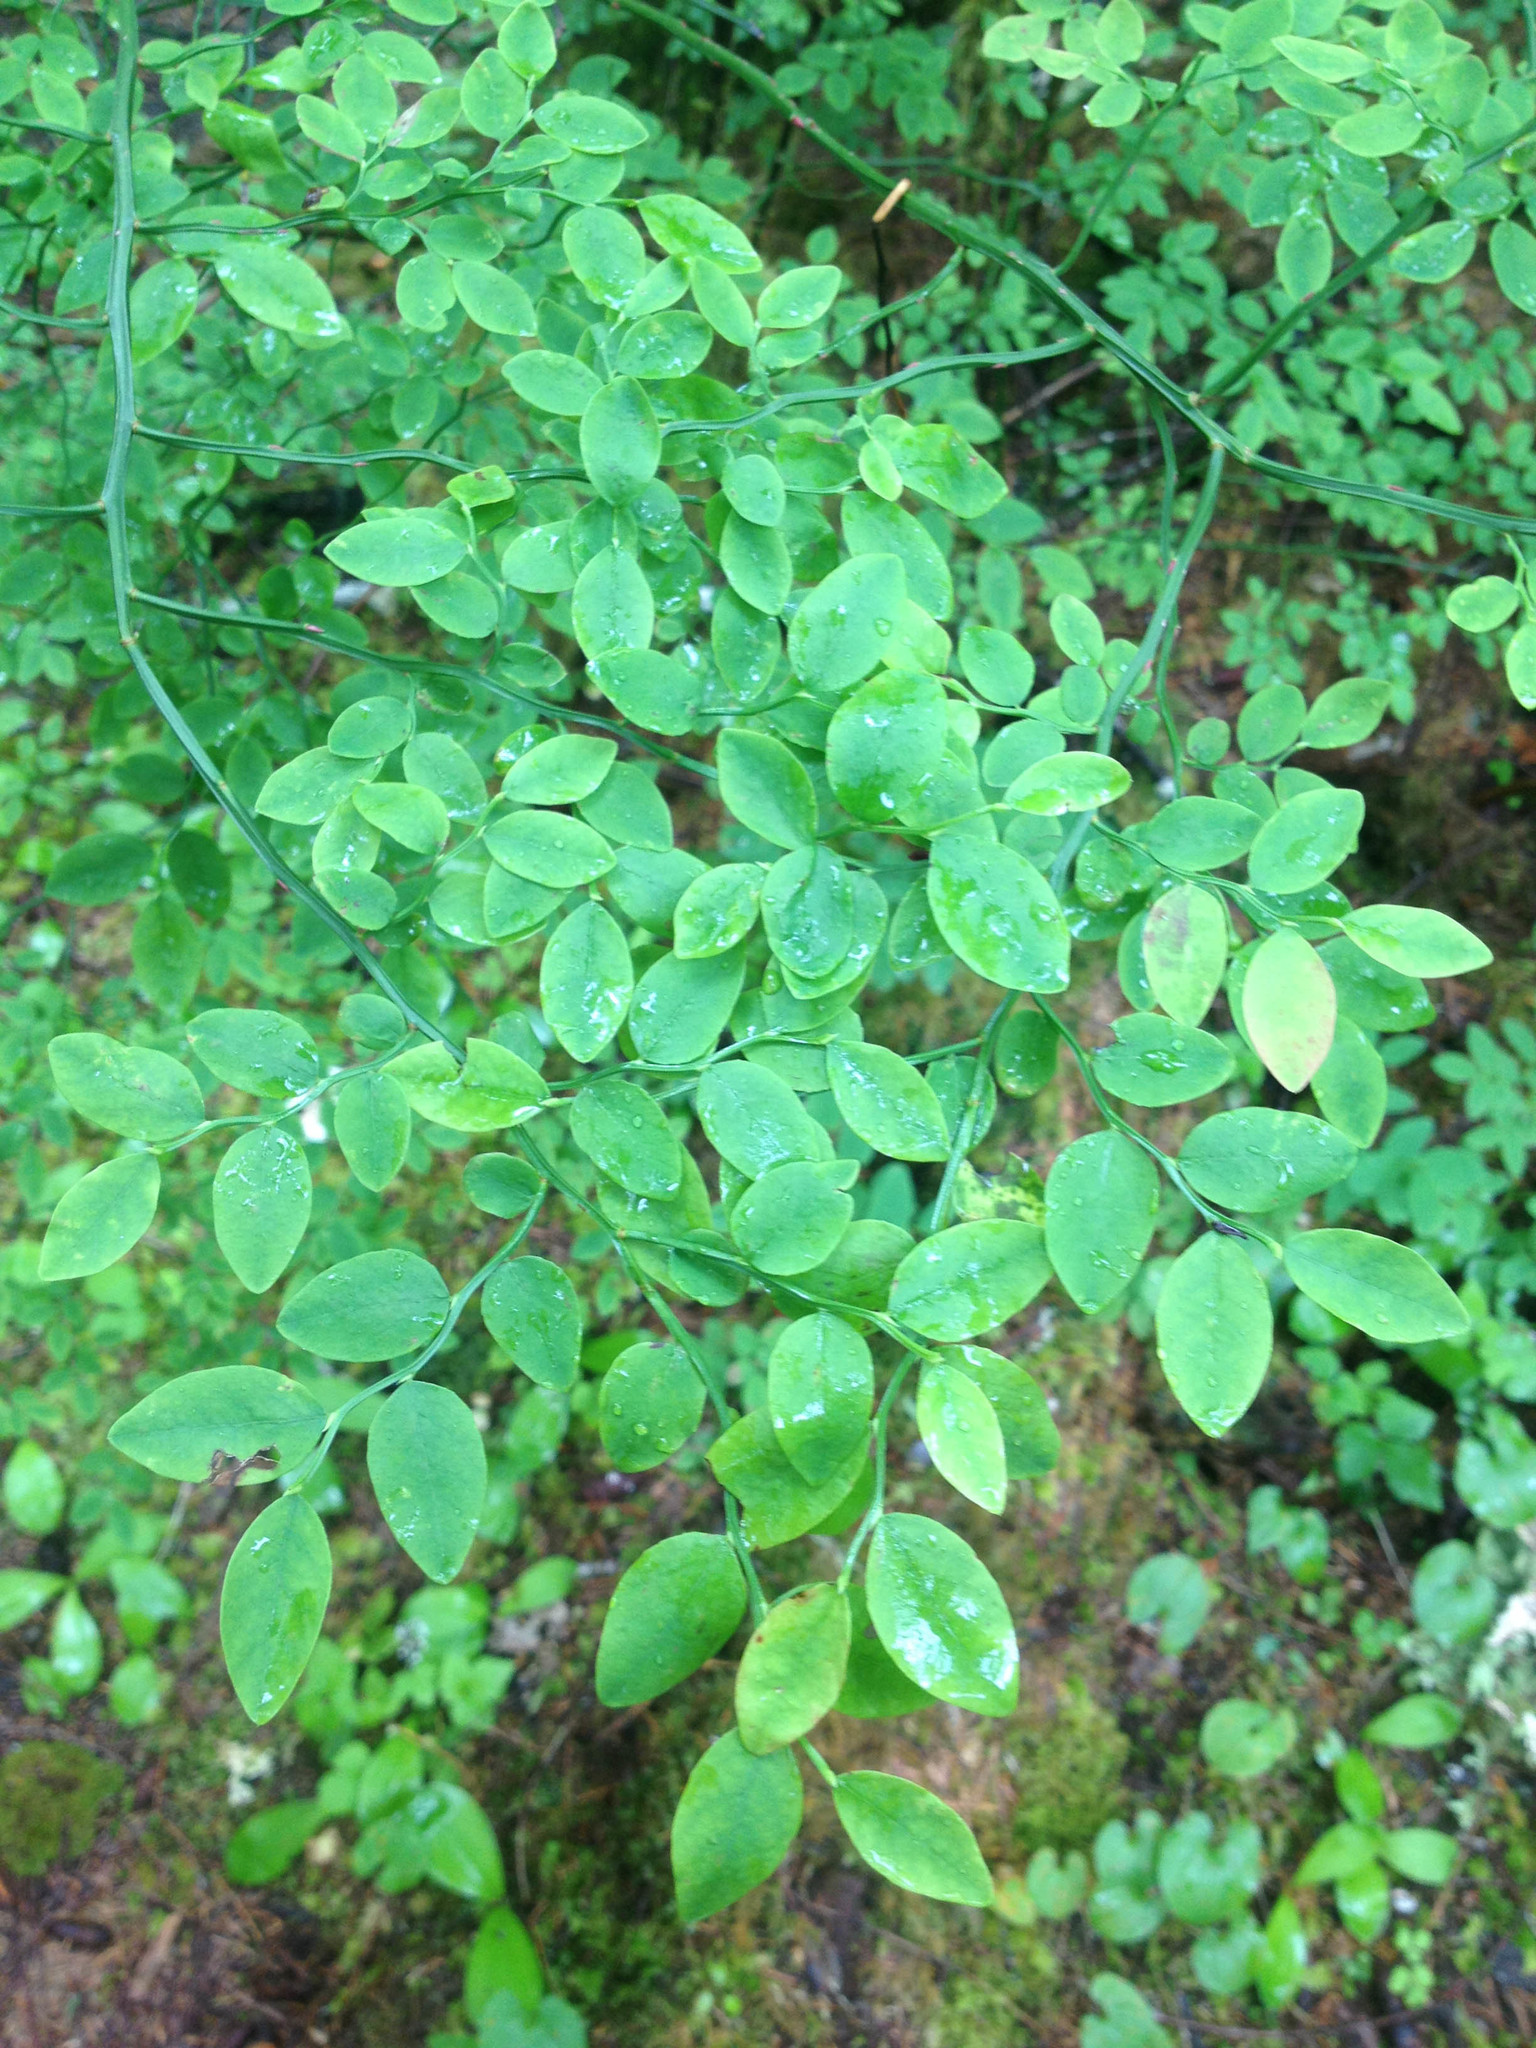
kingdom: Plantae
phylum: Tracheophyta
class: Magnoliopsida
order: Ericales
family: Ericaceae
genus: Vaccinium
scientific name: Vaccinium parvifolium
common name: Red-huckleberry
